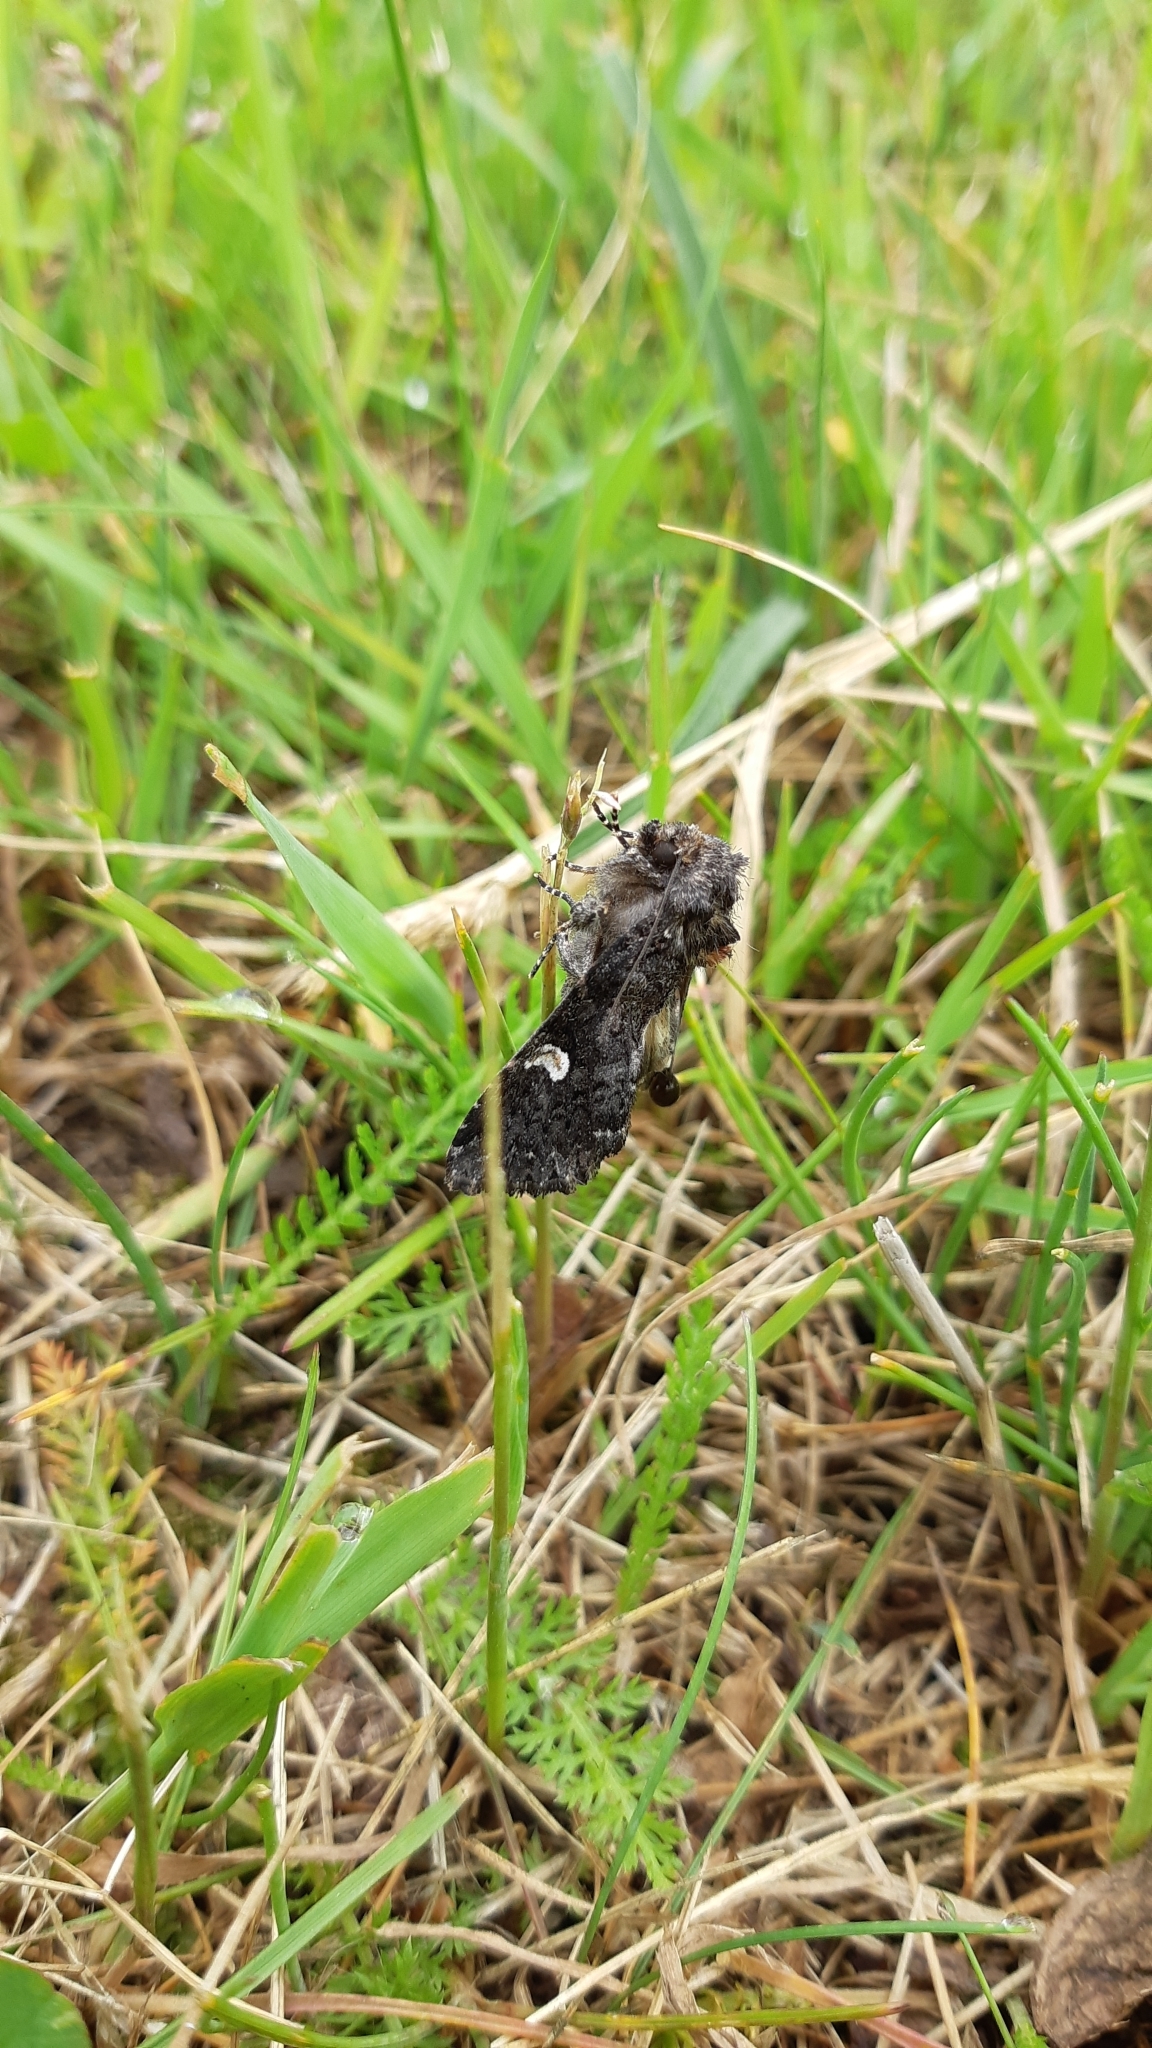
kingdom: Animalia
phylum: Arthropoda
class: Insecta
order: Lepidoptera
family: Noctuidae
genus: Melanchra
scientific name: Melanchra persicariae
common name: Dot moth
